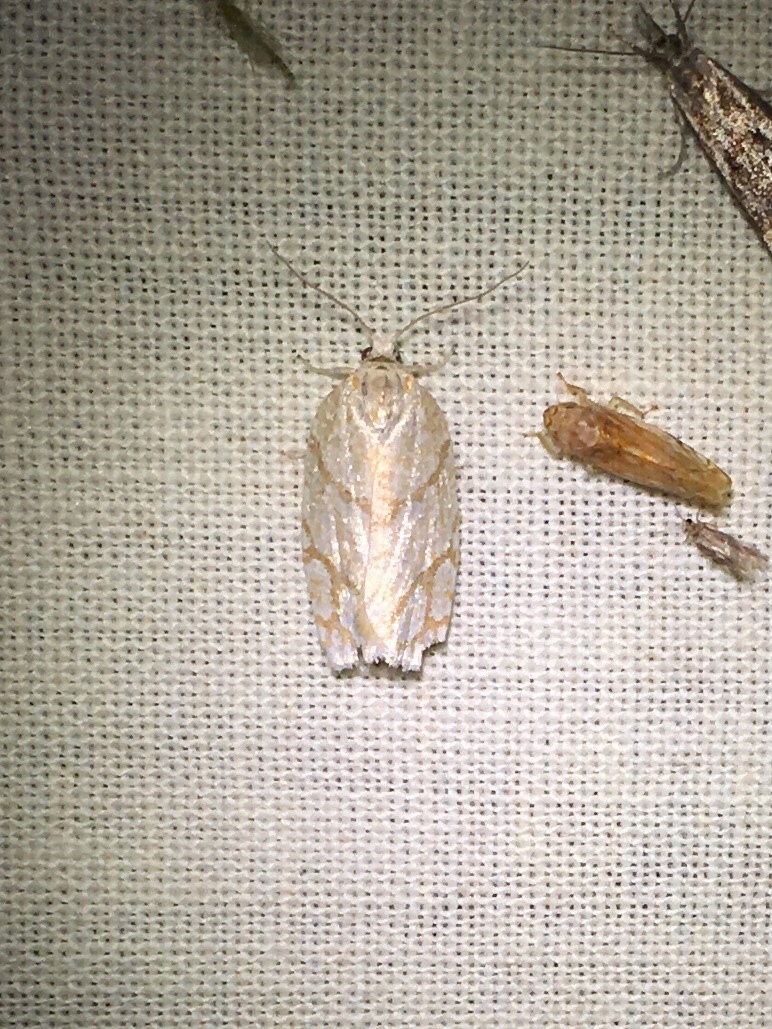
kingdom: Animalia
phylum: Arthropoda
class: Insecta
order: Lepidoptera
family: Tortricidae
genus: Argyrotaenia
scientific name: Argyrotaenia quercifoliana
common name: Yellow-winged oak leafroller moth
